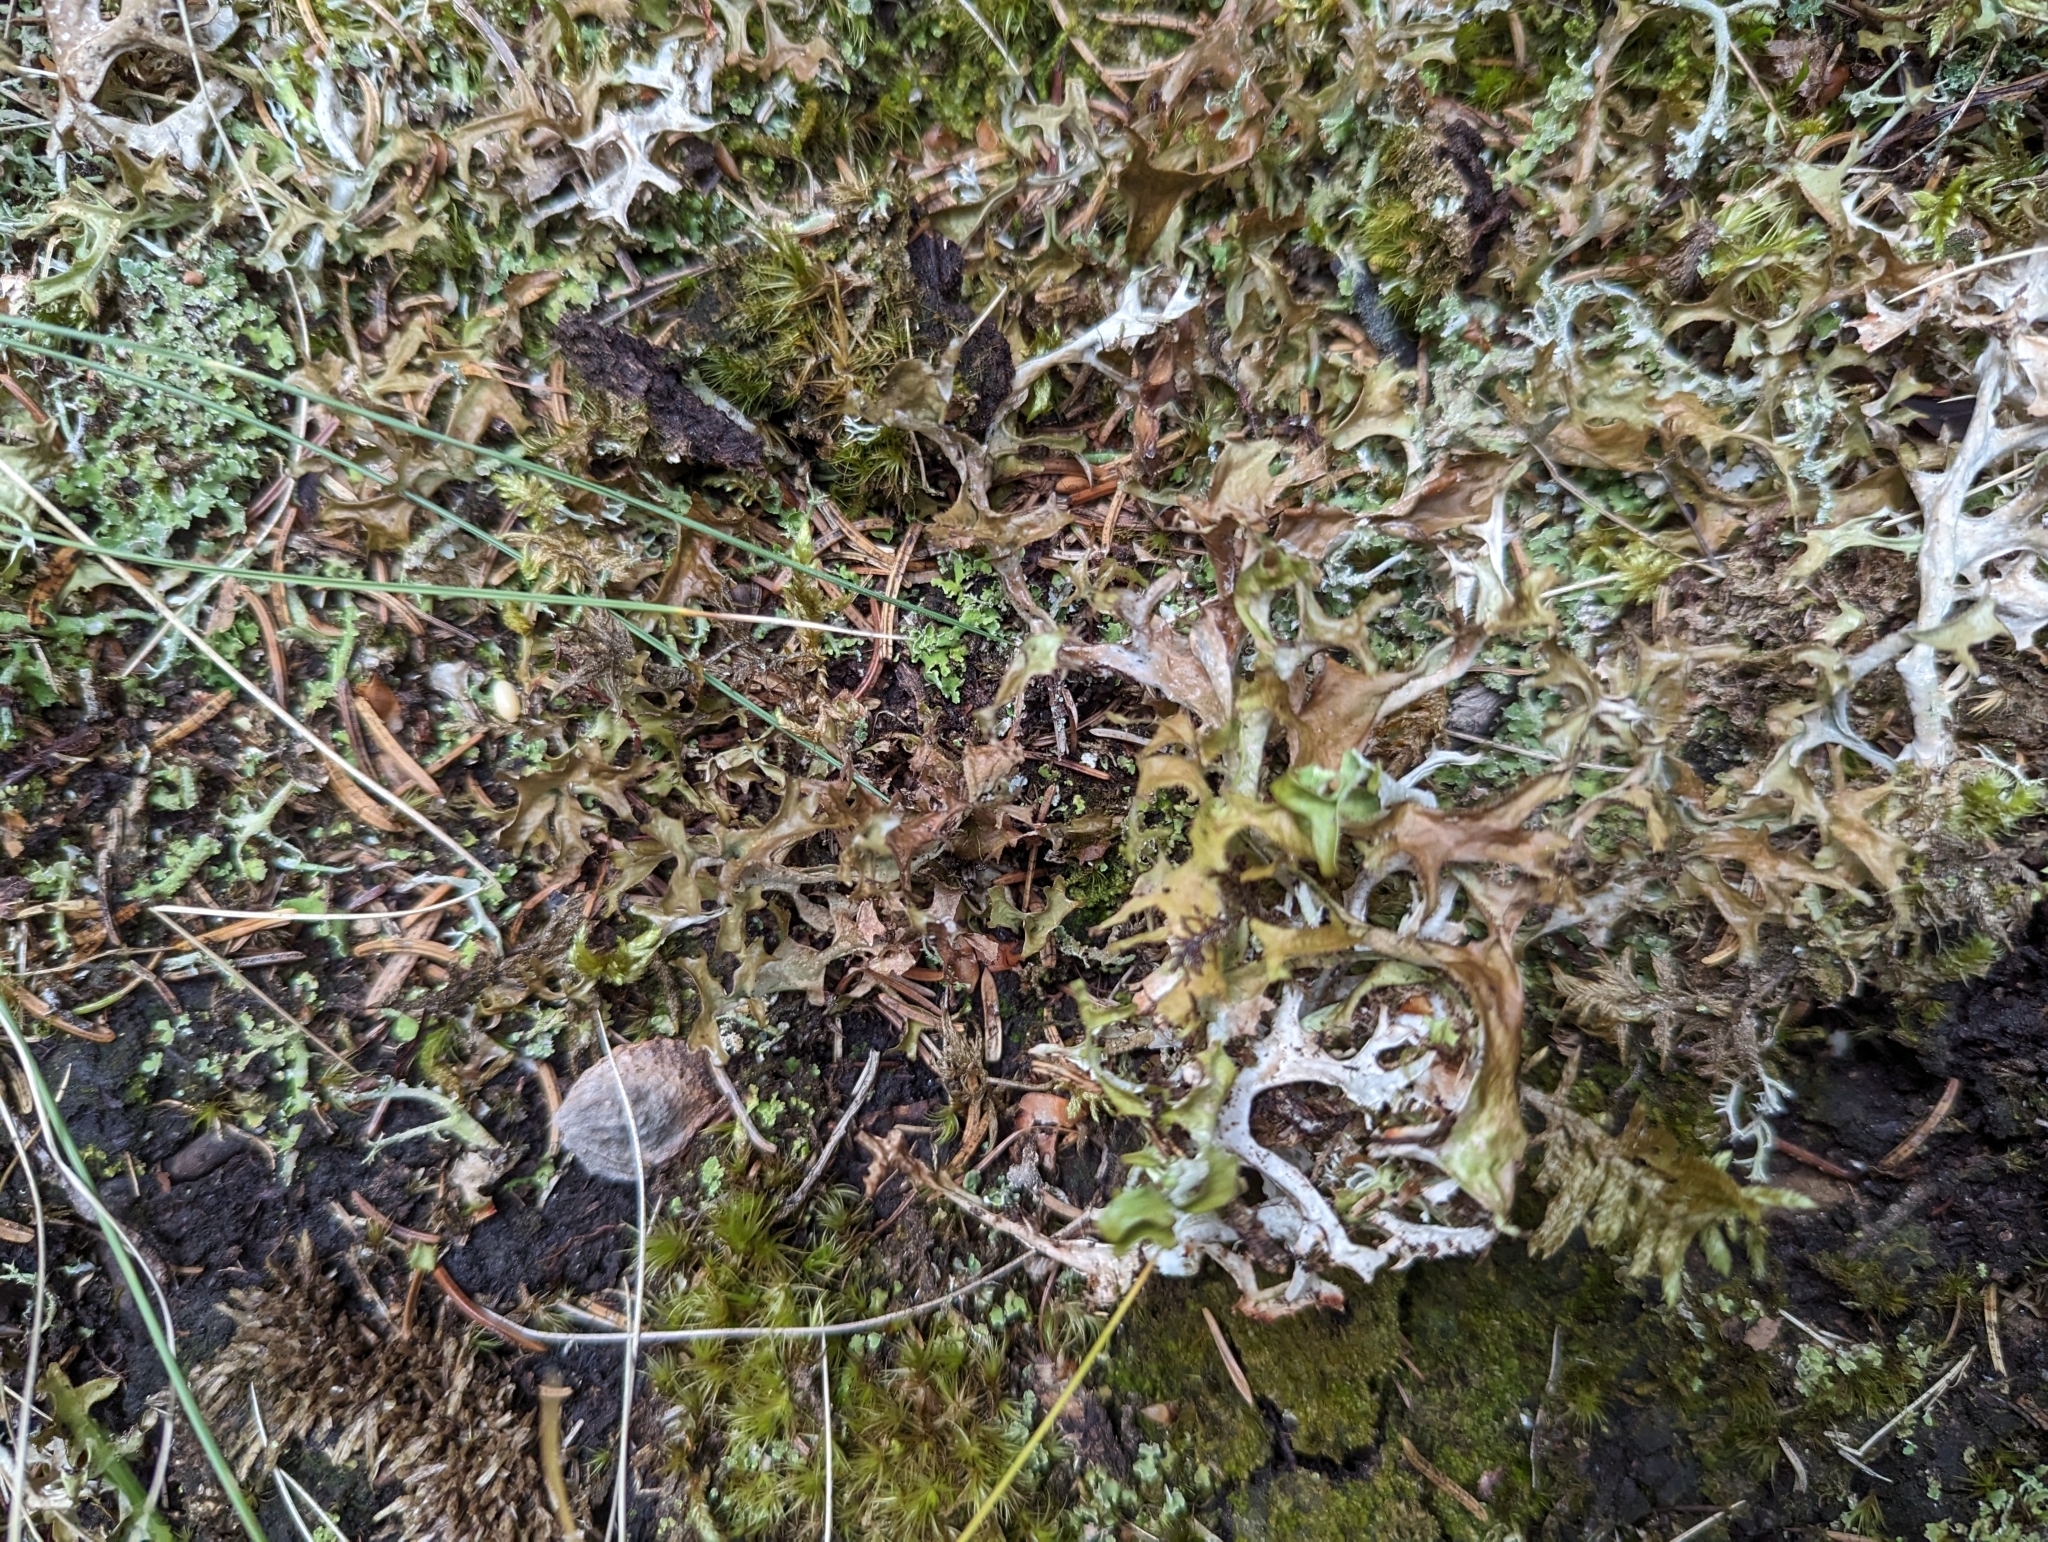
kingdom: Fungi
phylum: Ascomycota
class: Lecanoromycetes
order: Lecanorales
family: Parmeliaceae
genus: Cetraria
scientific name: Cetraria islandica
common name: Iceland lichen
